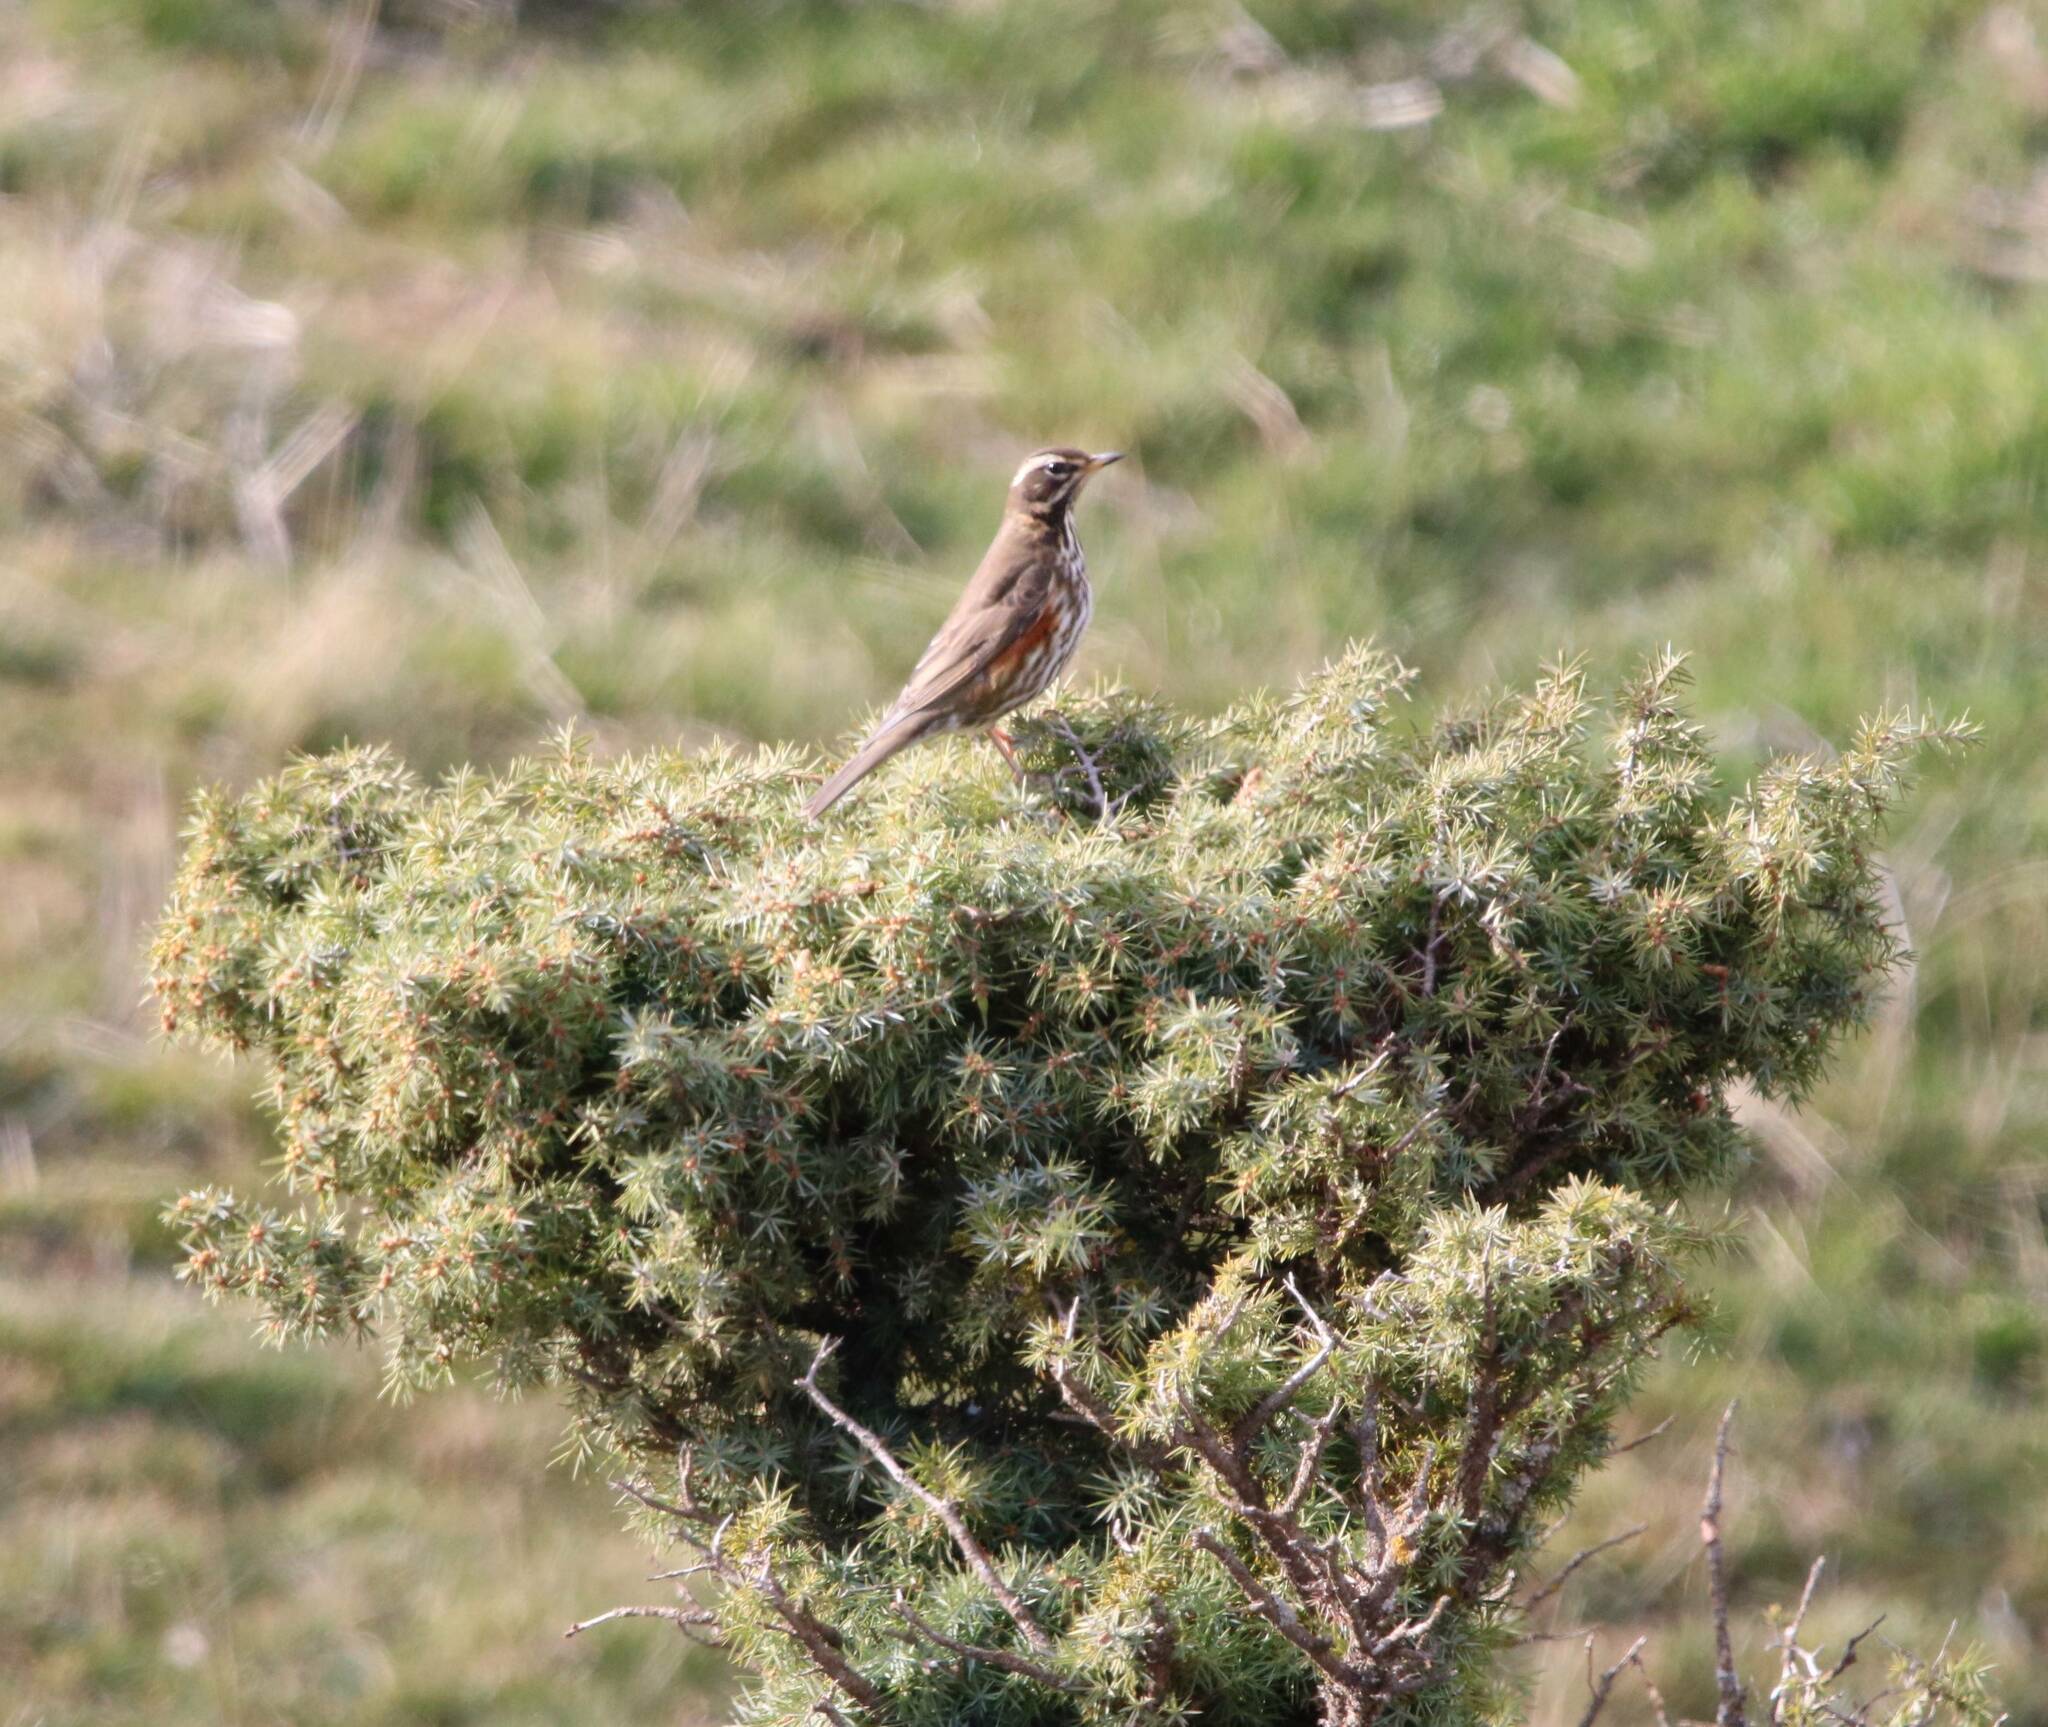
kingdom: Animalia
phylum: Chordata
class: Aves
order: Passeriformes
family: Turdidae
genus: Turdus
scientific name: Turdus iliacus
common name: Redwing
